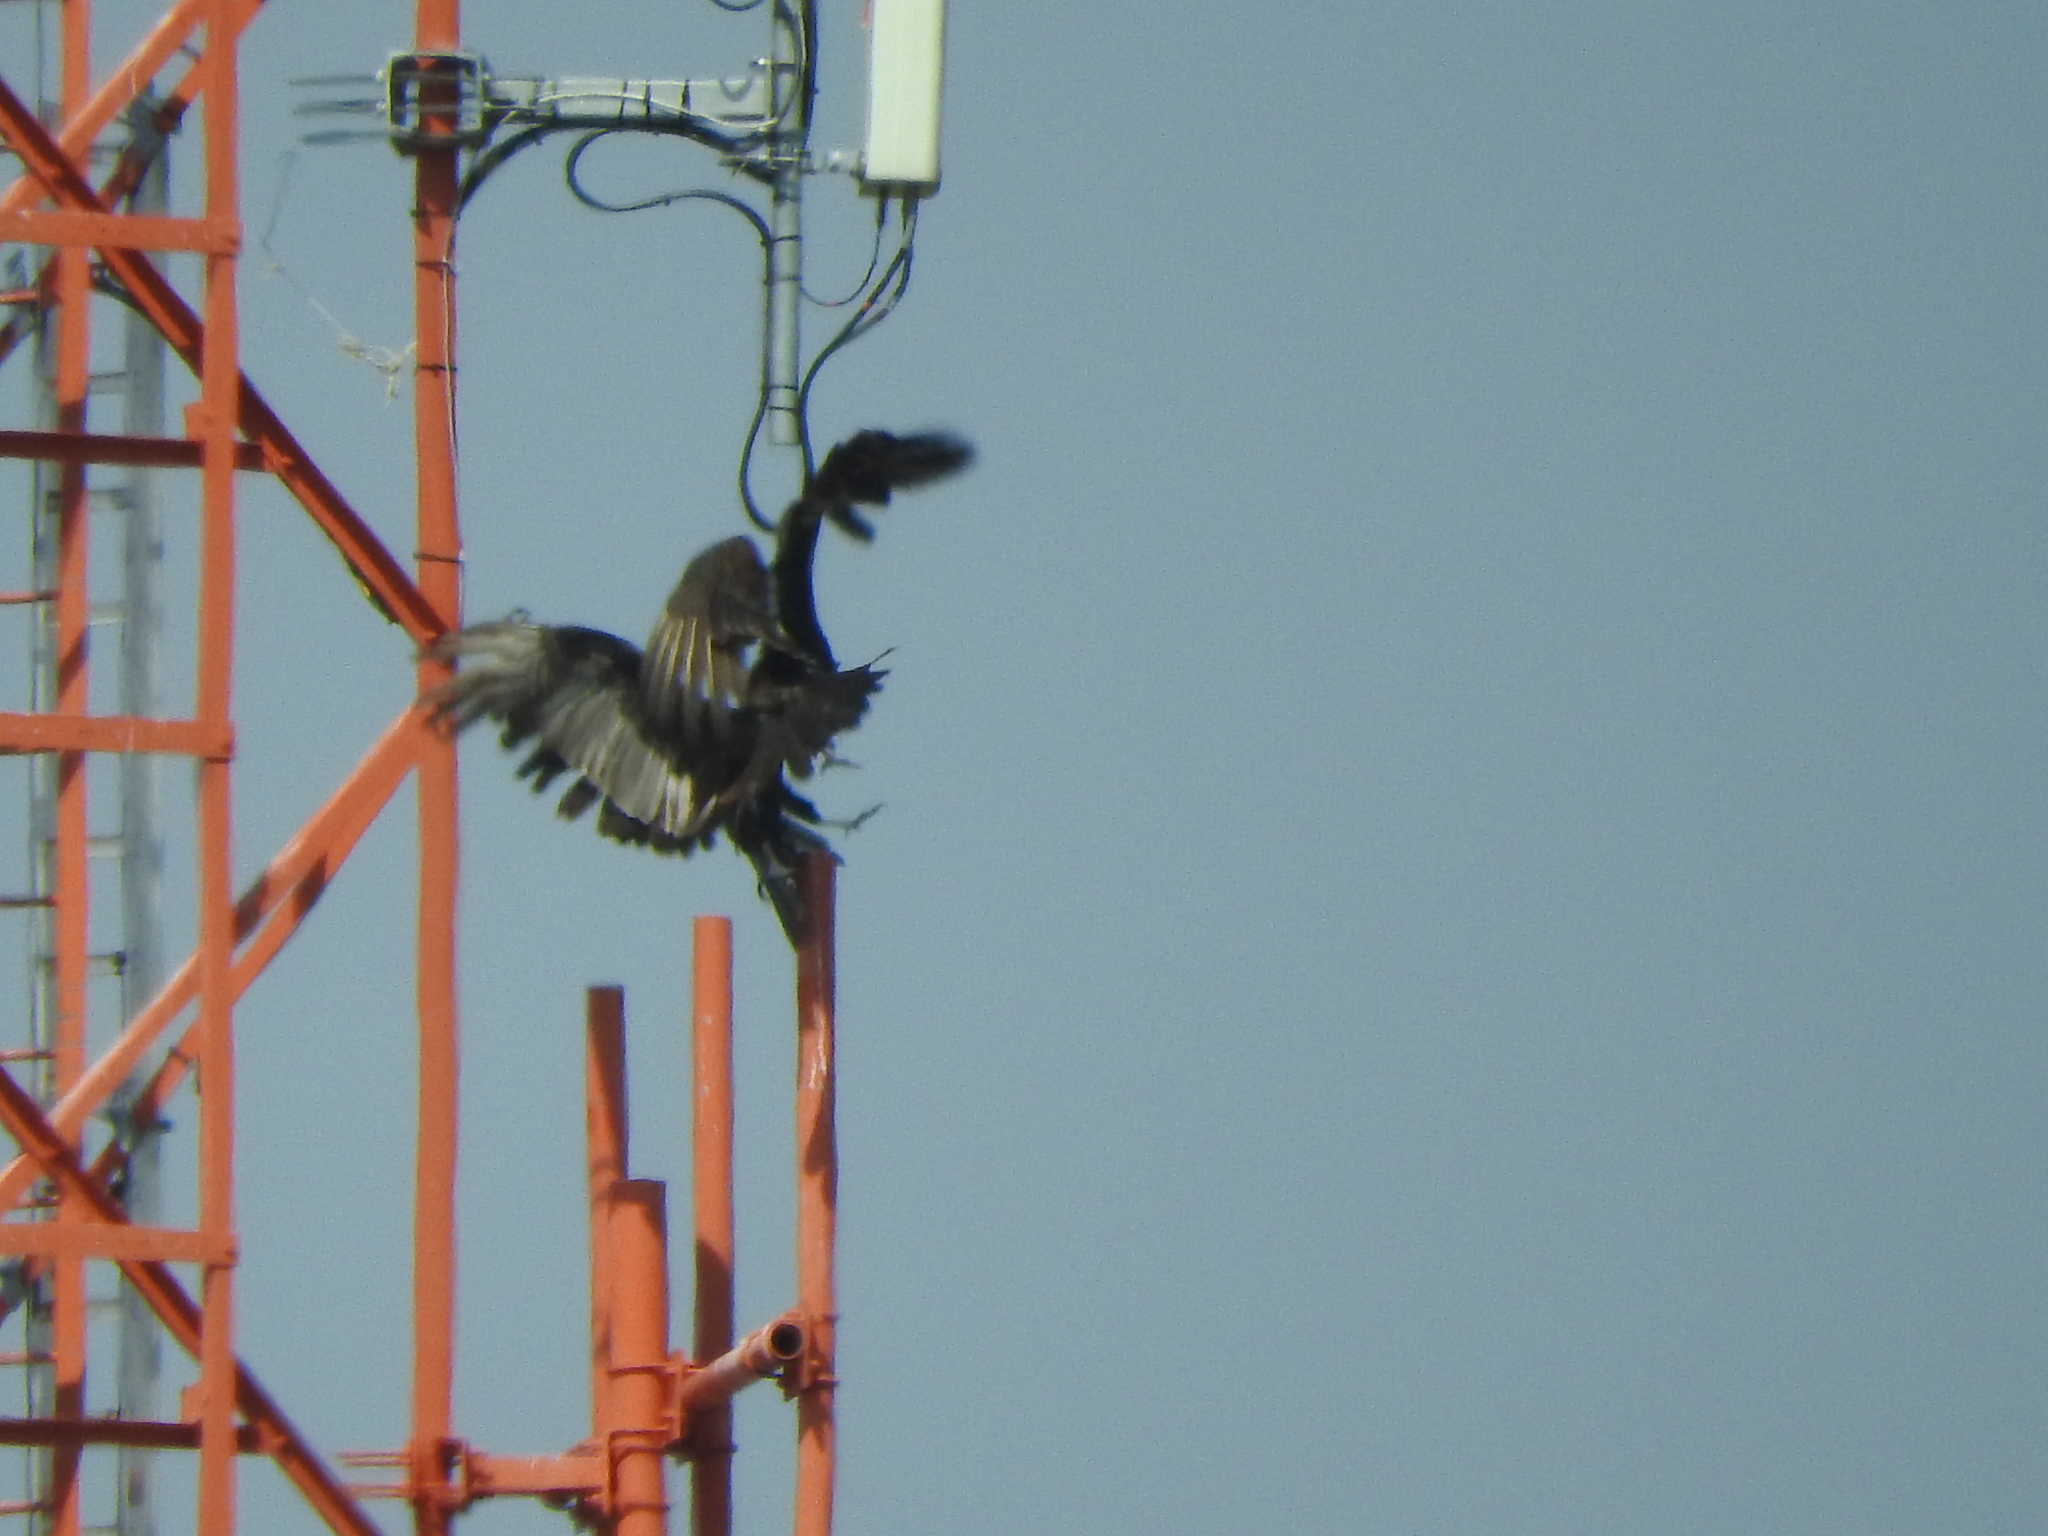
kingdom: Animalia
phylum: Chordata
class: Aves
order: Accipitriformes
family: Cathartidae
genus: Cathartes
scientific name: Cathartes aura
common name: Turkey vulture
